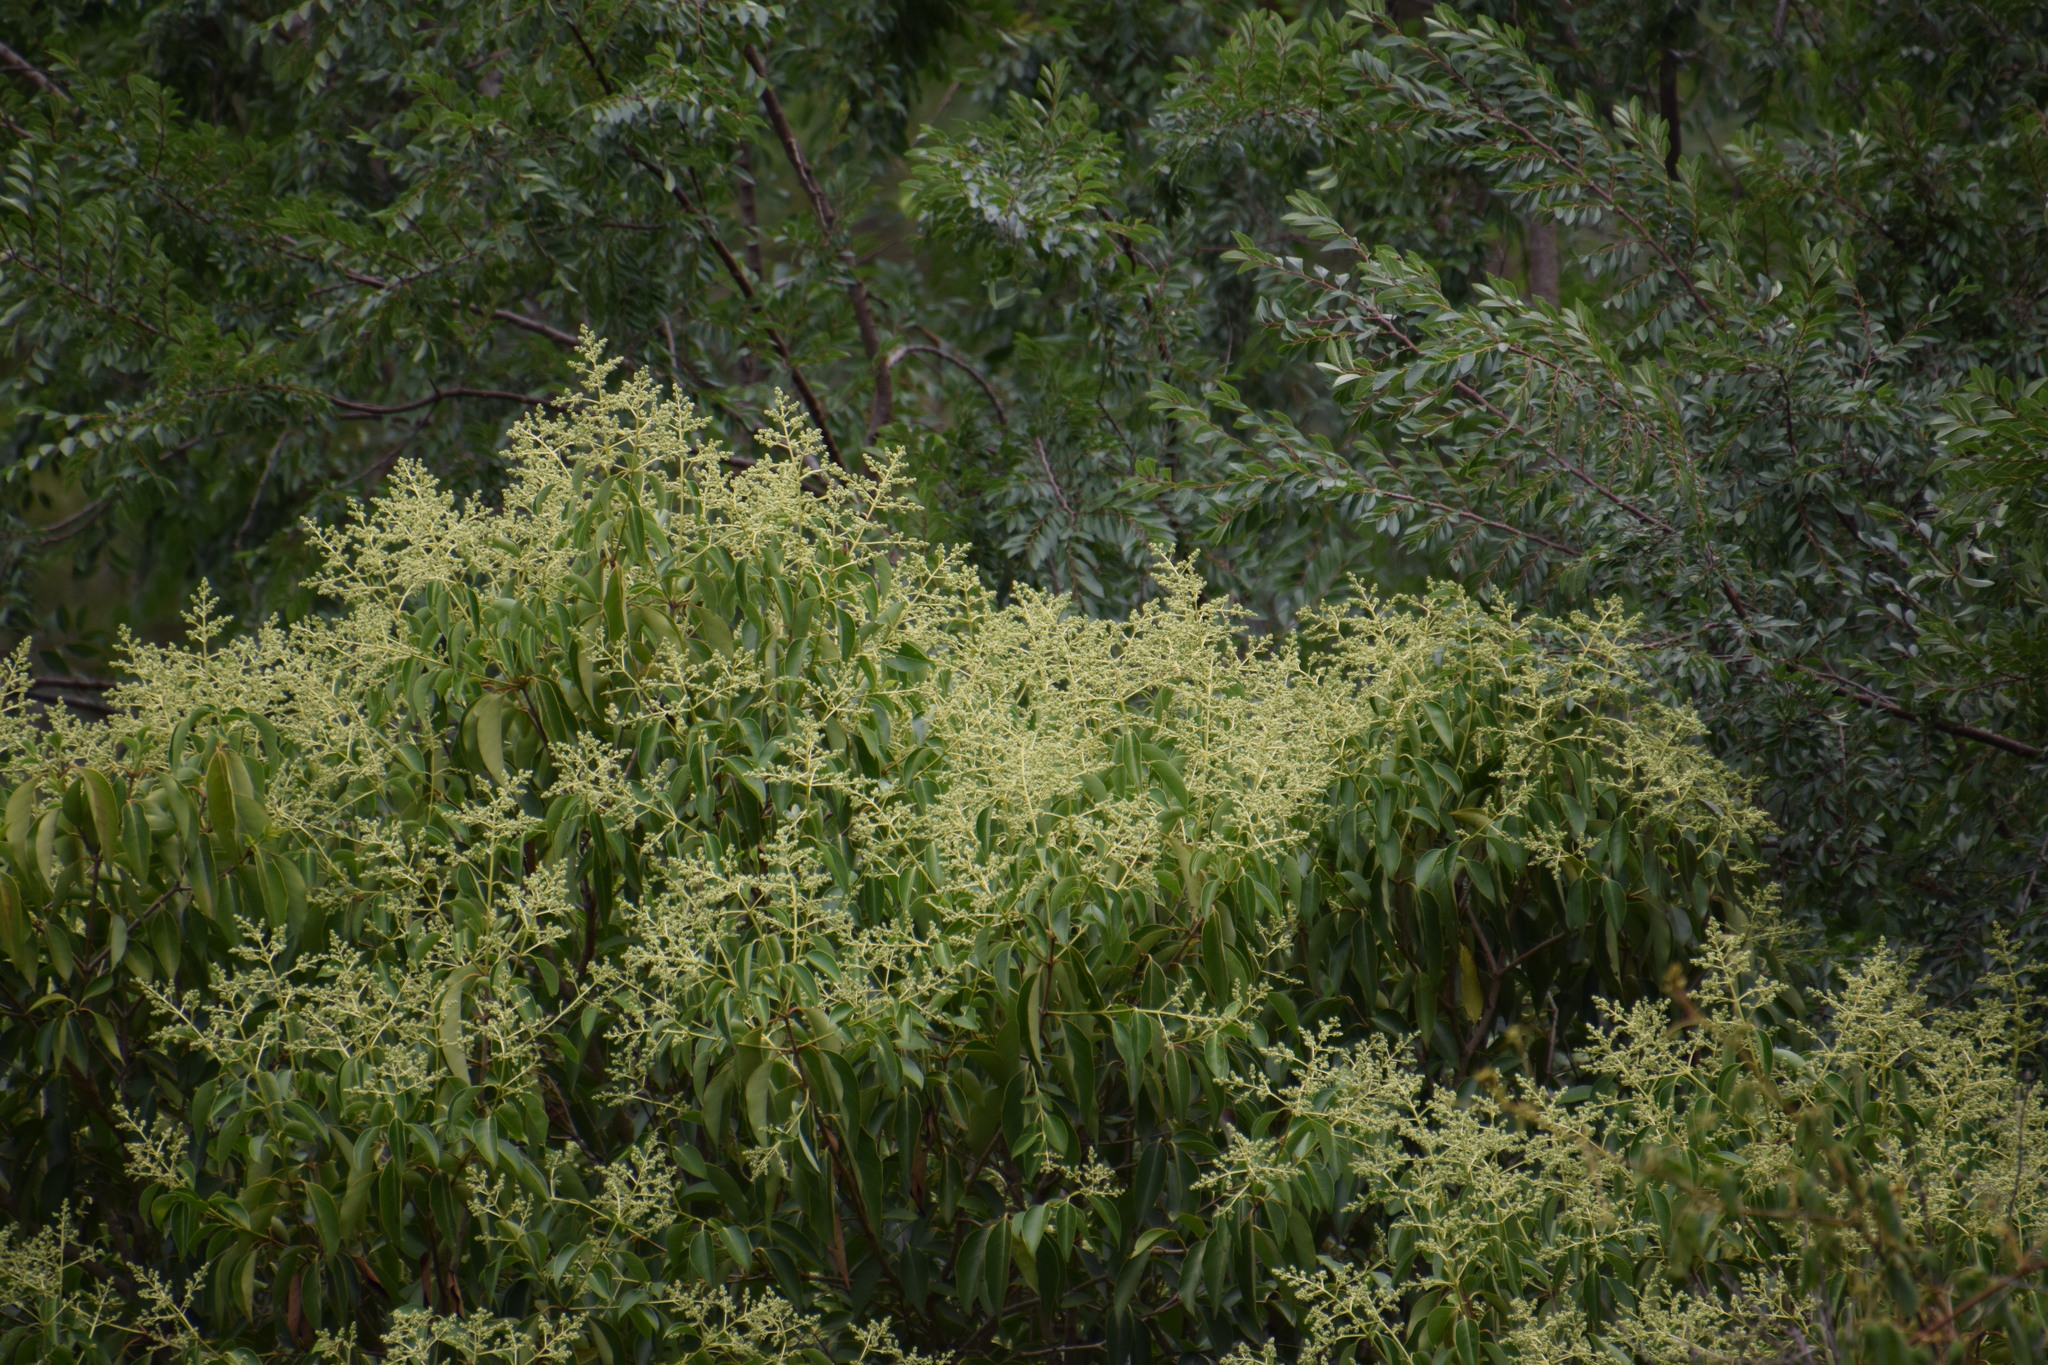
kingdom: Plantae
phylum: Tracheophyta
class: Magnoliopsida
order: Lamiales
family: Oleaceae
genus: Ligustrum
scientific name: Ligustrum lucidum
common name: Glossy privet
